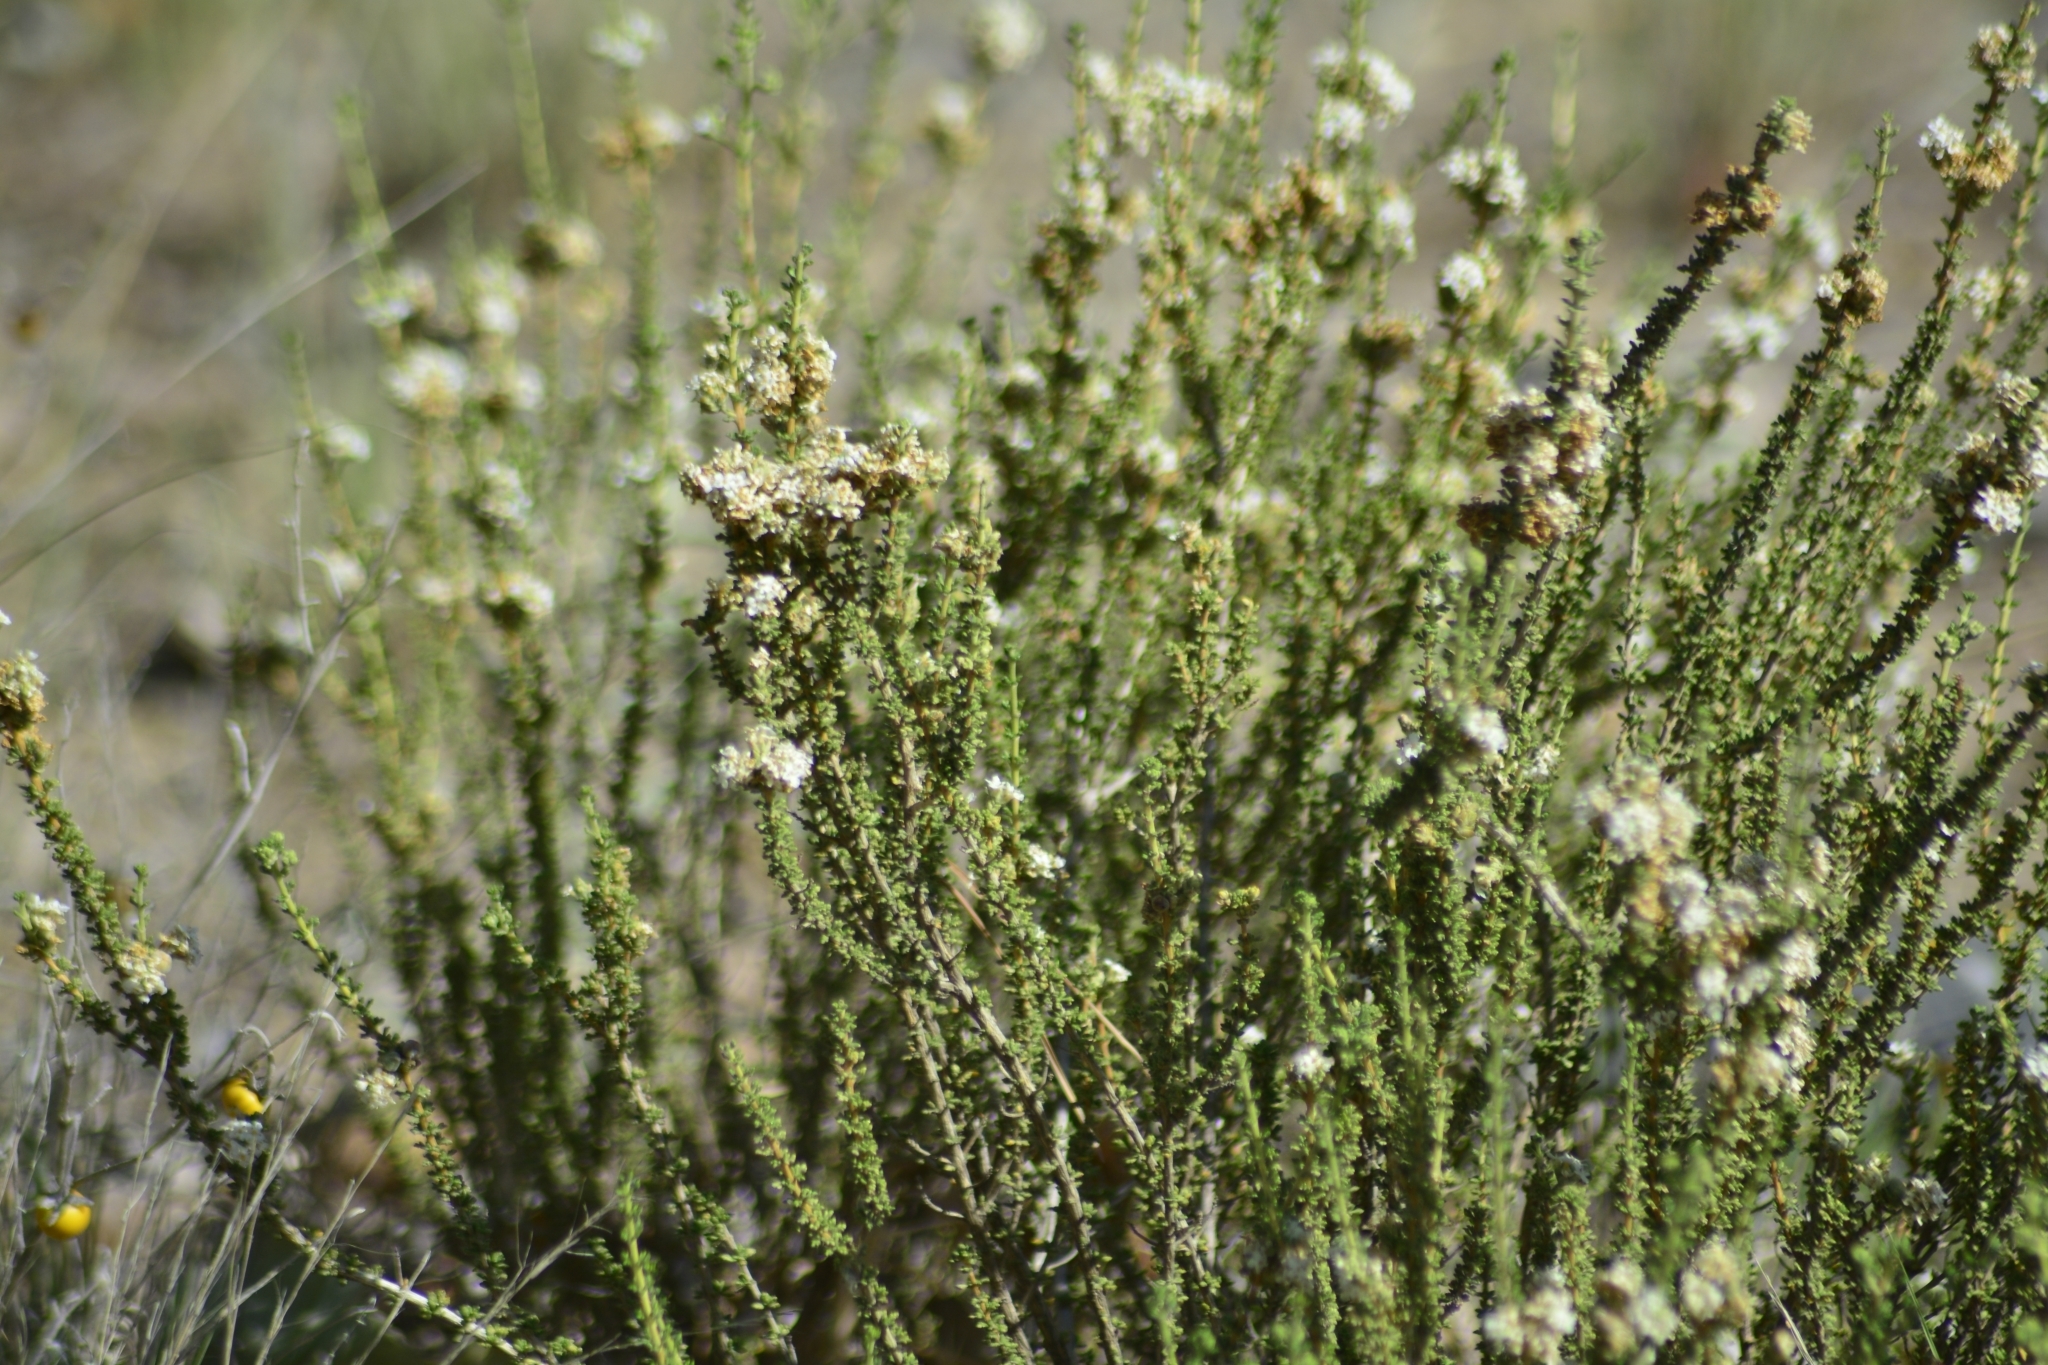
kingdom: Plantae
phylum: Tracheophyta
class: Magnoliopsida
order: Lamiales
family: Verbenaceae
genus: Acantholippia
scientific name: Acantholippia seriphioides
